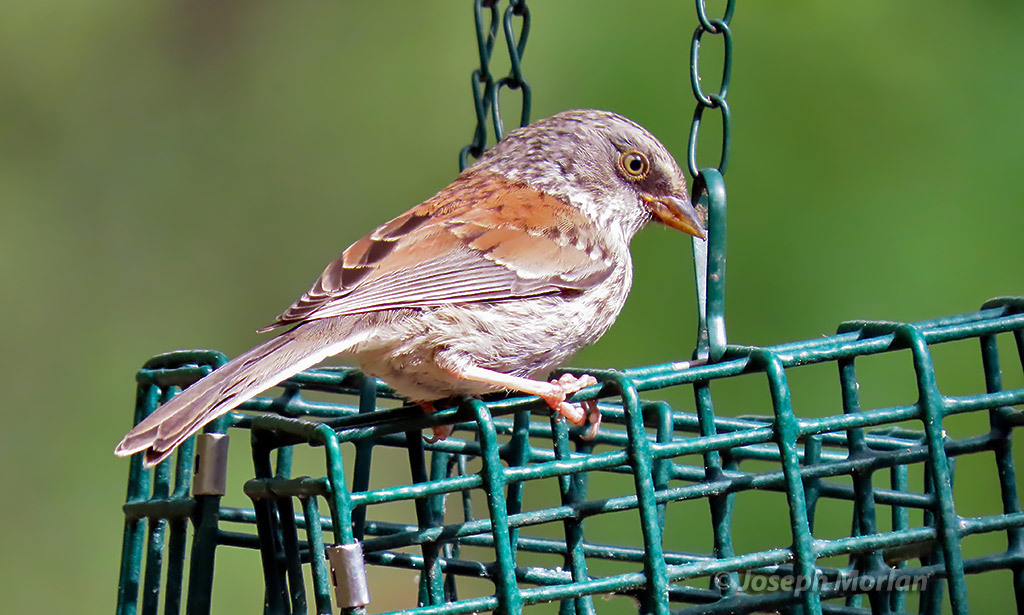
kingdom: Animalia
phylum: Chordata
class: Aves
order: Passeriformes
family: Passerellidae
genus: Junco
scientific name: Junco phaeonotus
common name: Yellow-eyed junco
